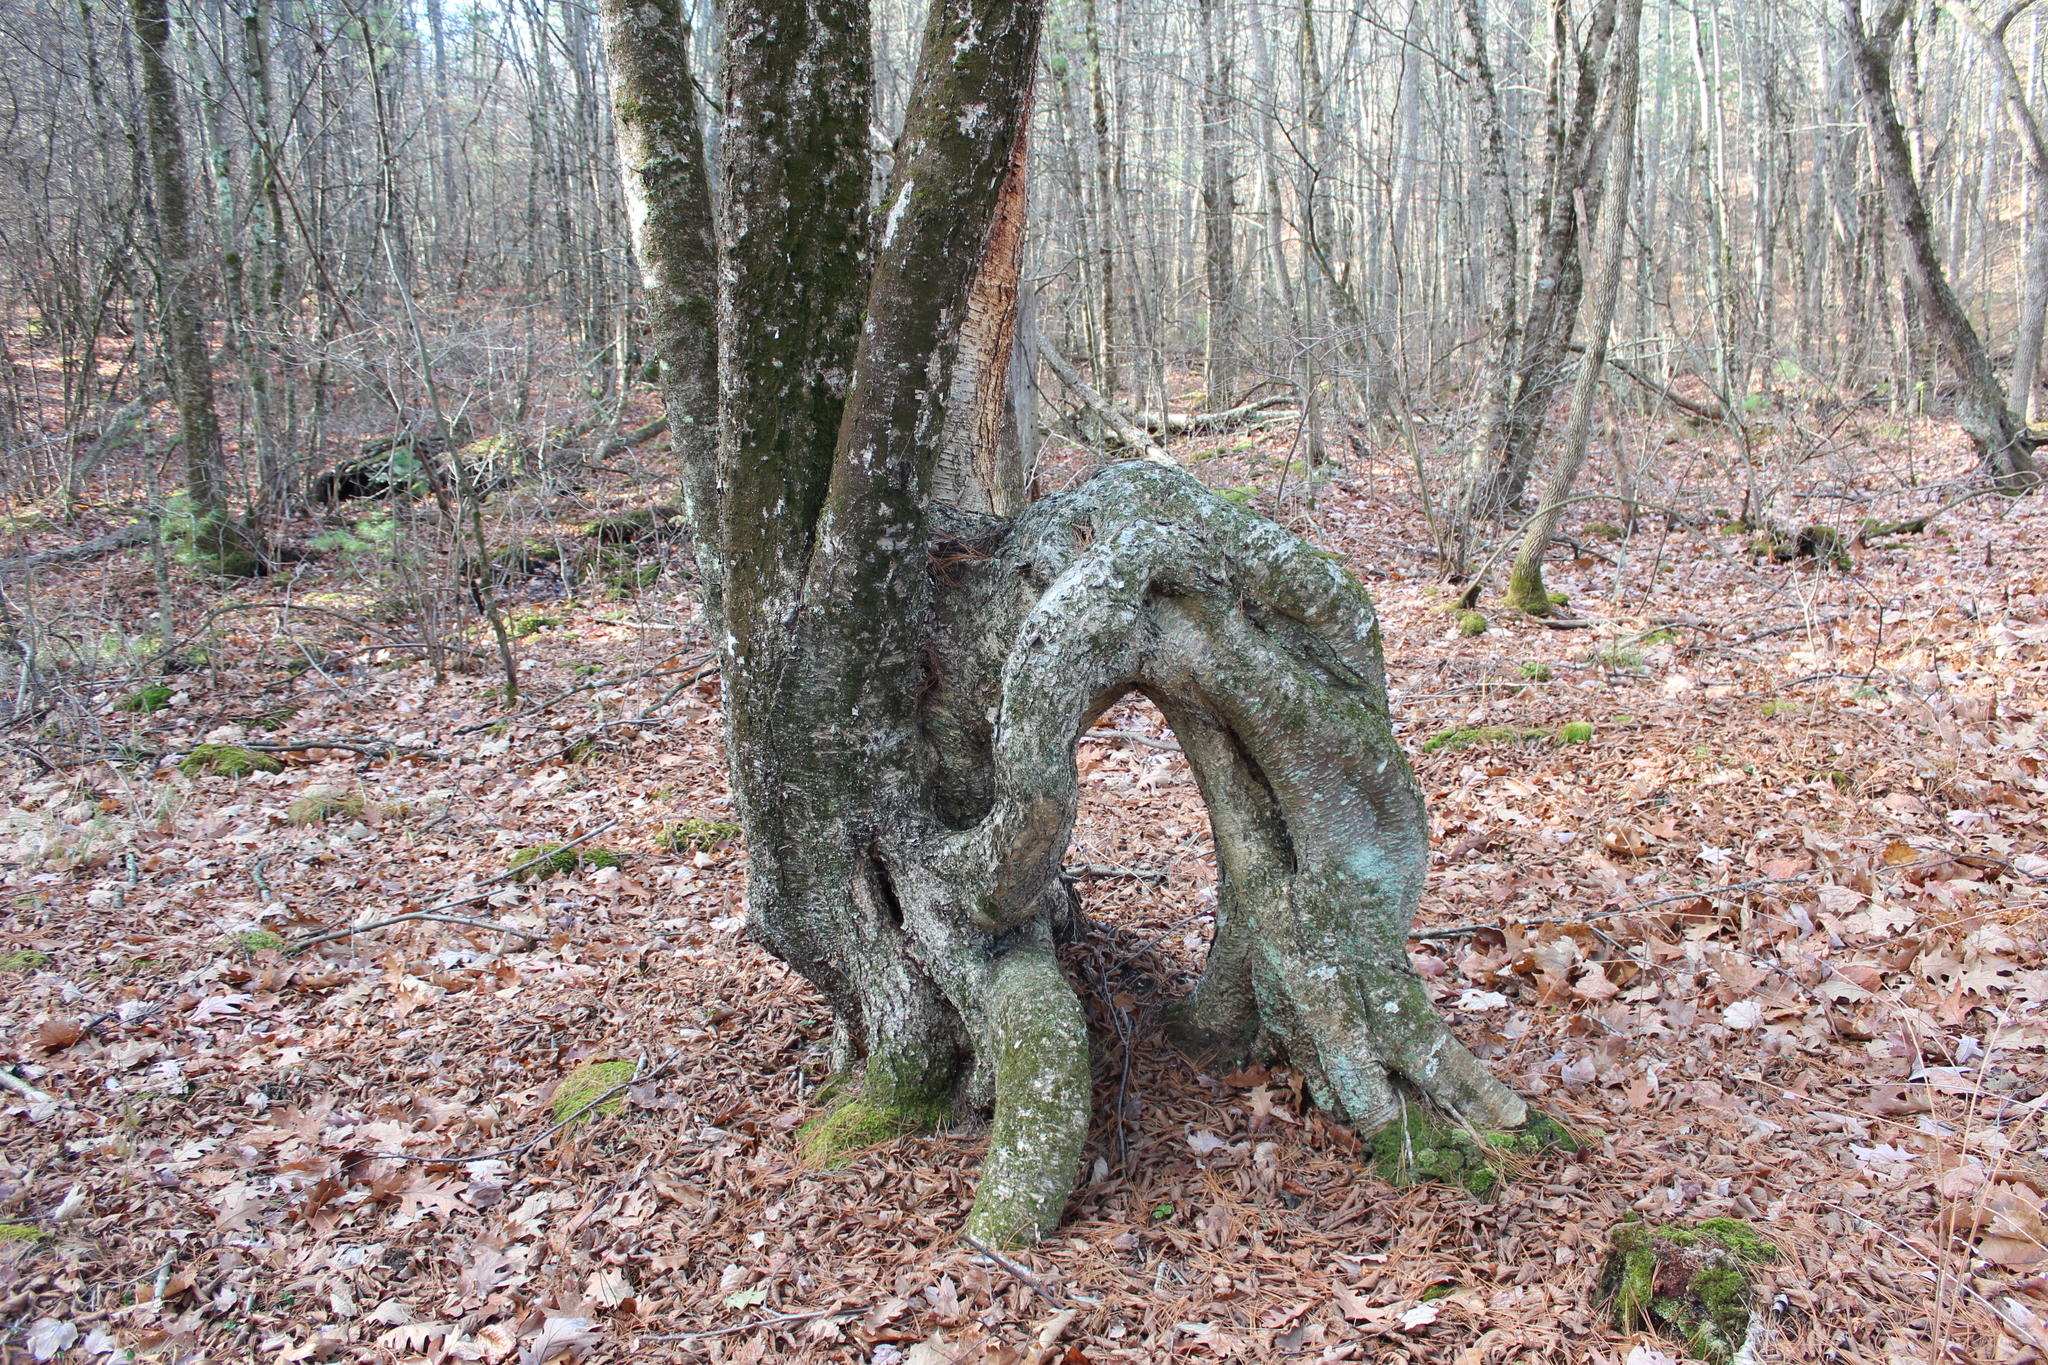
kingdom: Plantae
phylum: Tracheophyta
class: Magnoliopsida
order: Fagales
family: Betulaceae
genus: Betula
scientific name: Betula alleghaniensis
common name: Yellow birch
